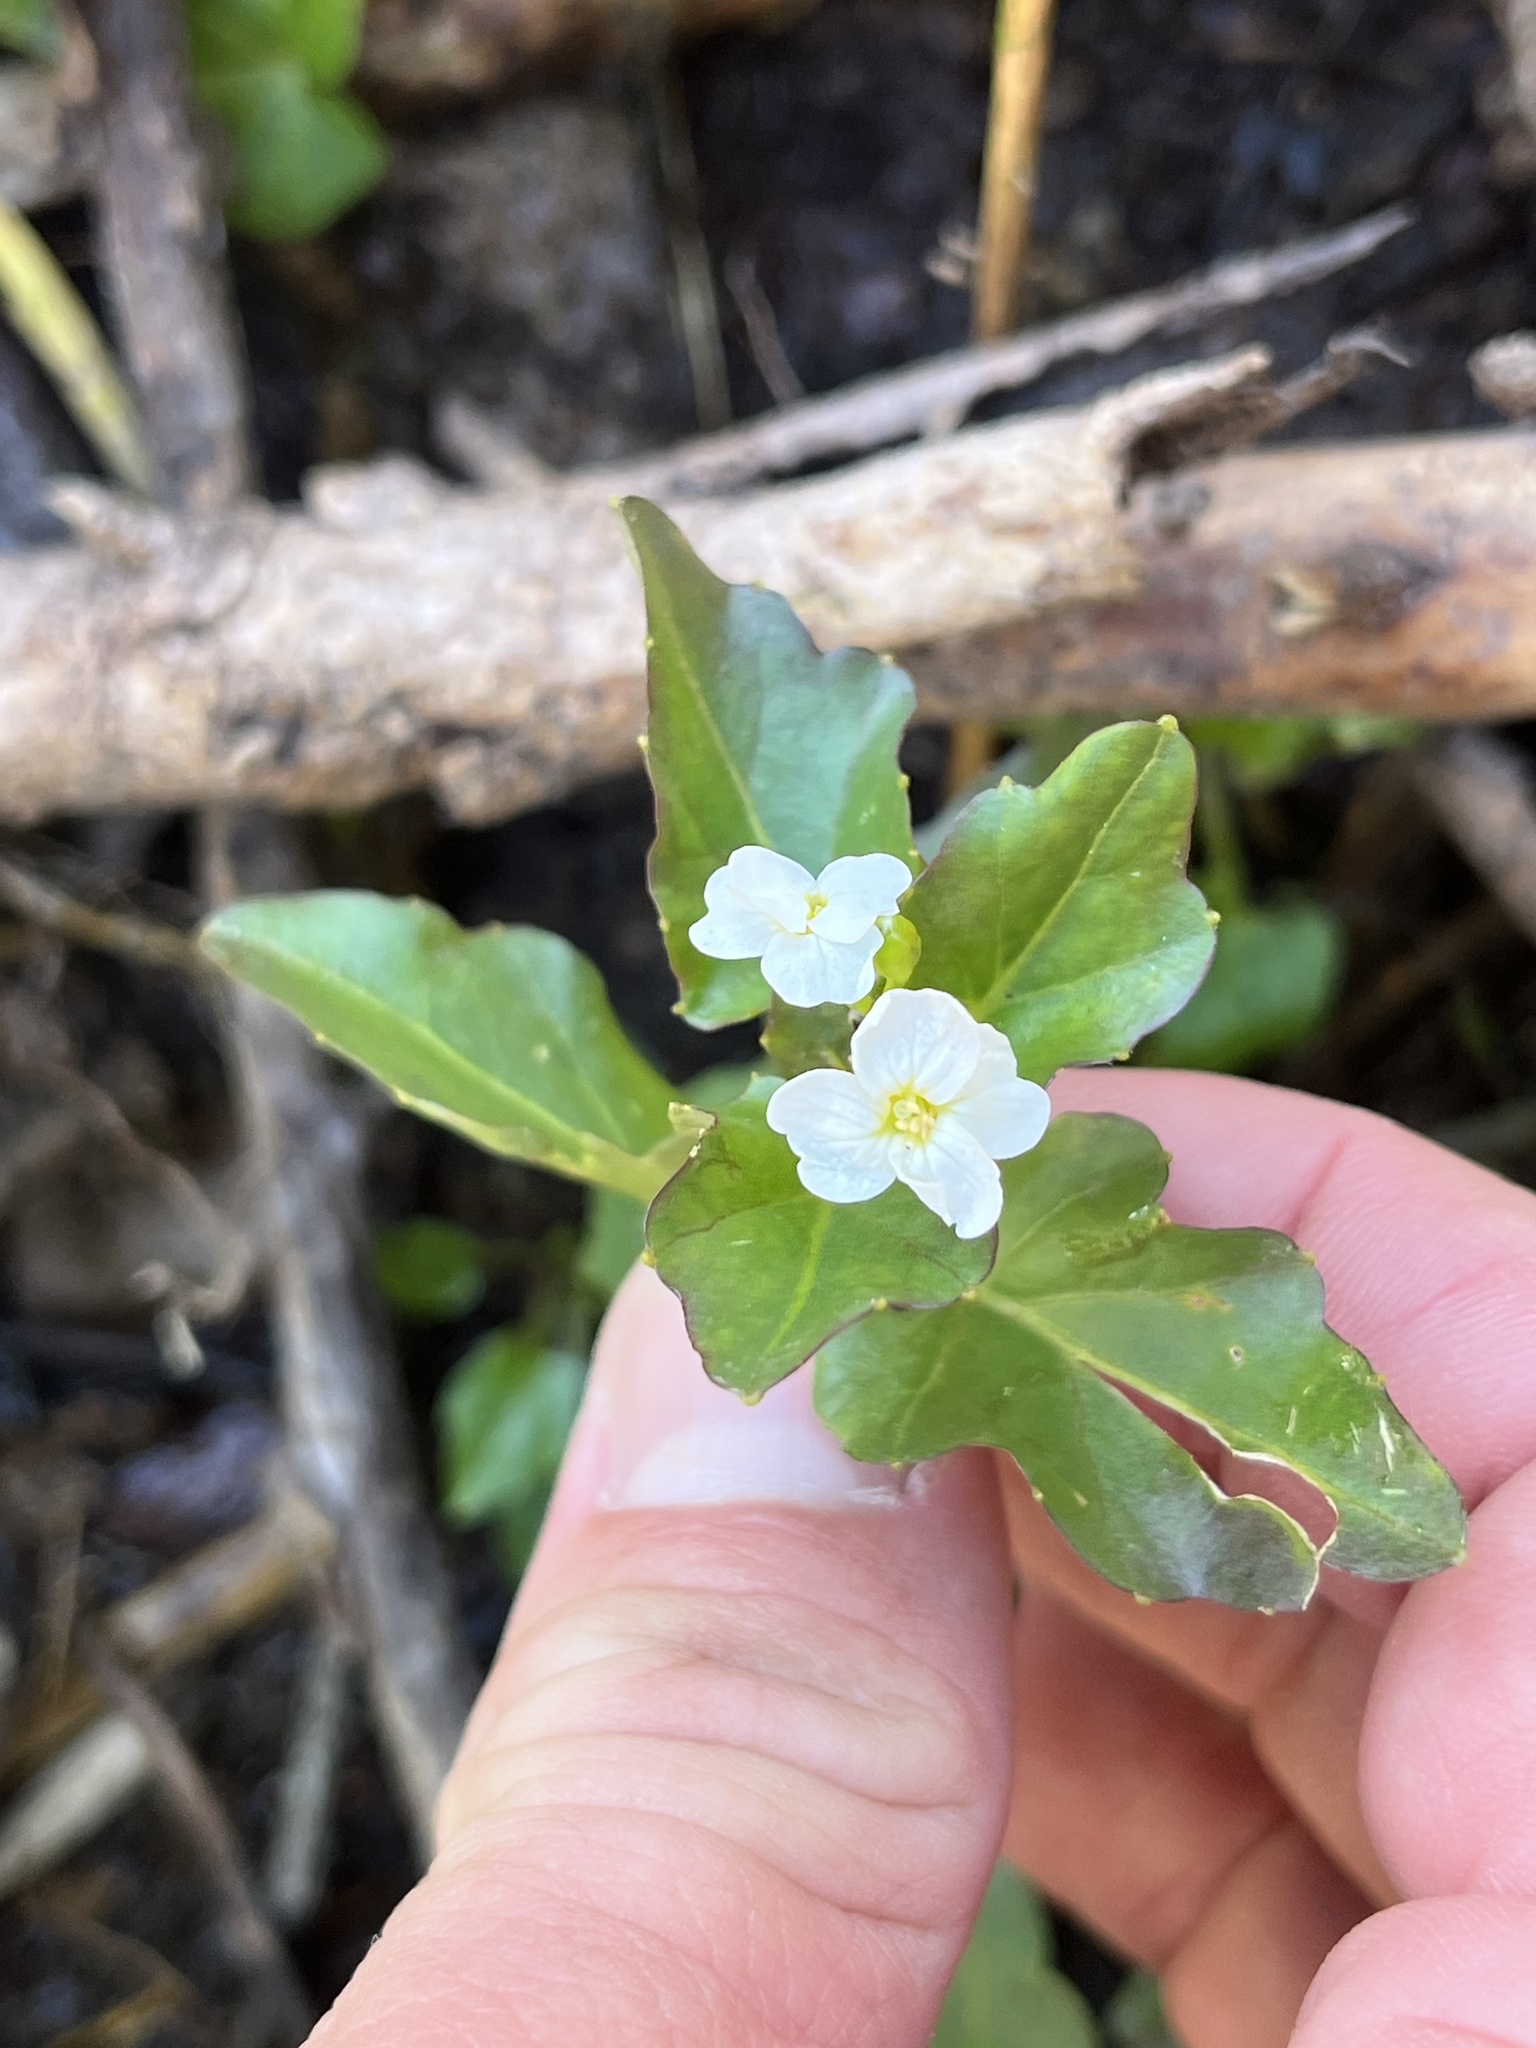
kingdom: Plantae
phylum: Tracheophyta
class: Magnoliopsida
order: Brassicales
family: Brassicaceae
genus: Cardamine
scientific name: Cardamine cordifolia
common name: Heart-leaf bittercress
